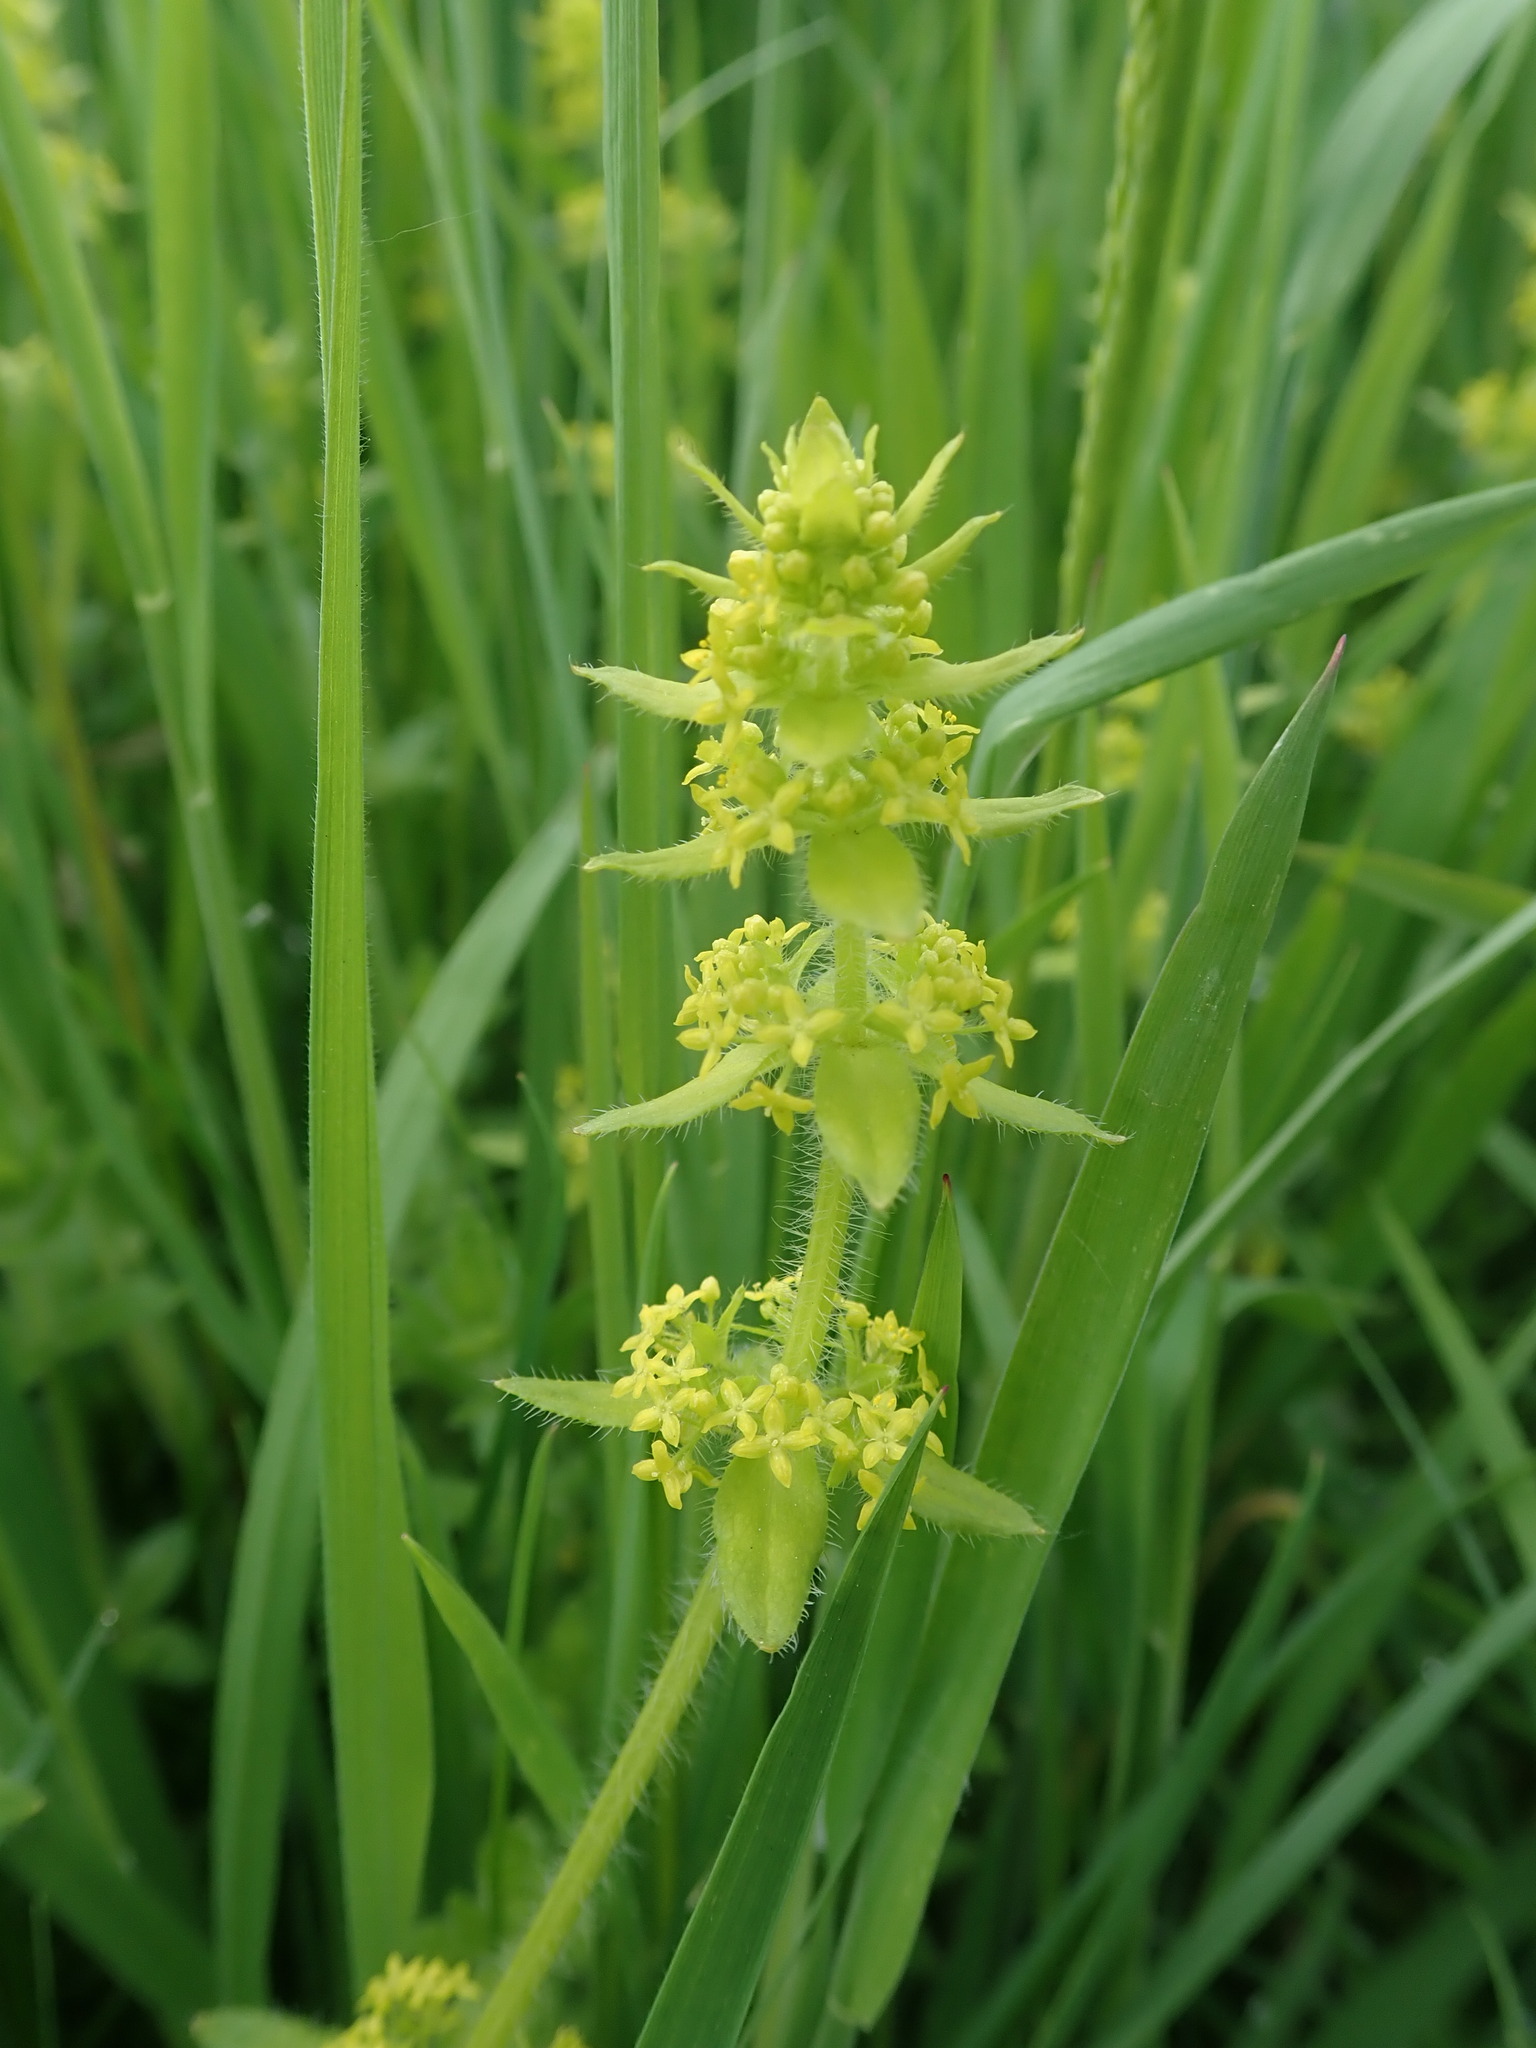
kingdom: Plantae
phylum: Tracheophyta
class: Magnoliopsida
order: Gentianales
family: Rubiaceae
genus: Cruciata
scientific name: Cruciata laevipes
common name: Crosswort
